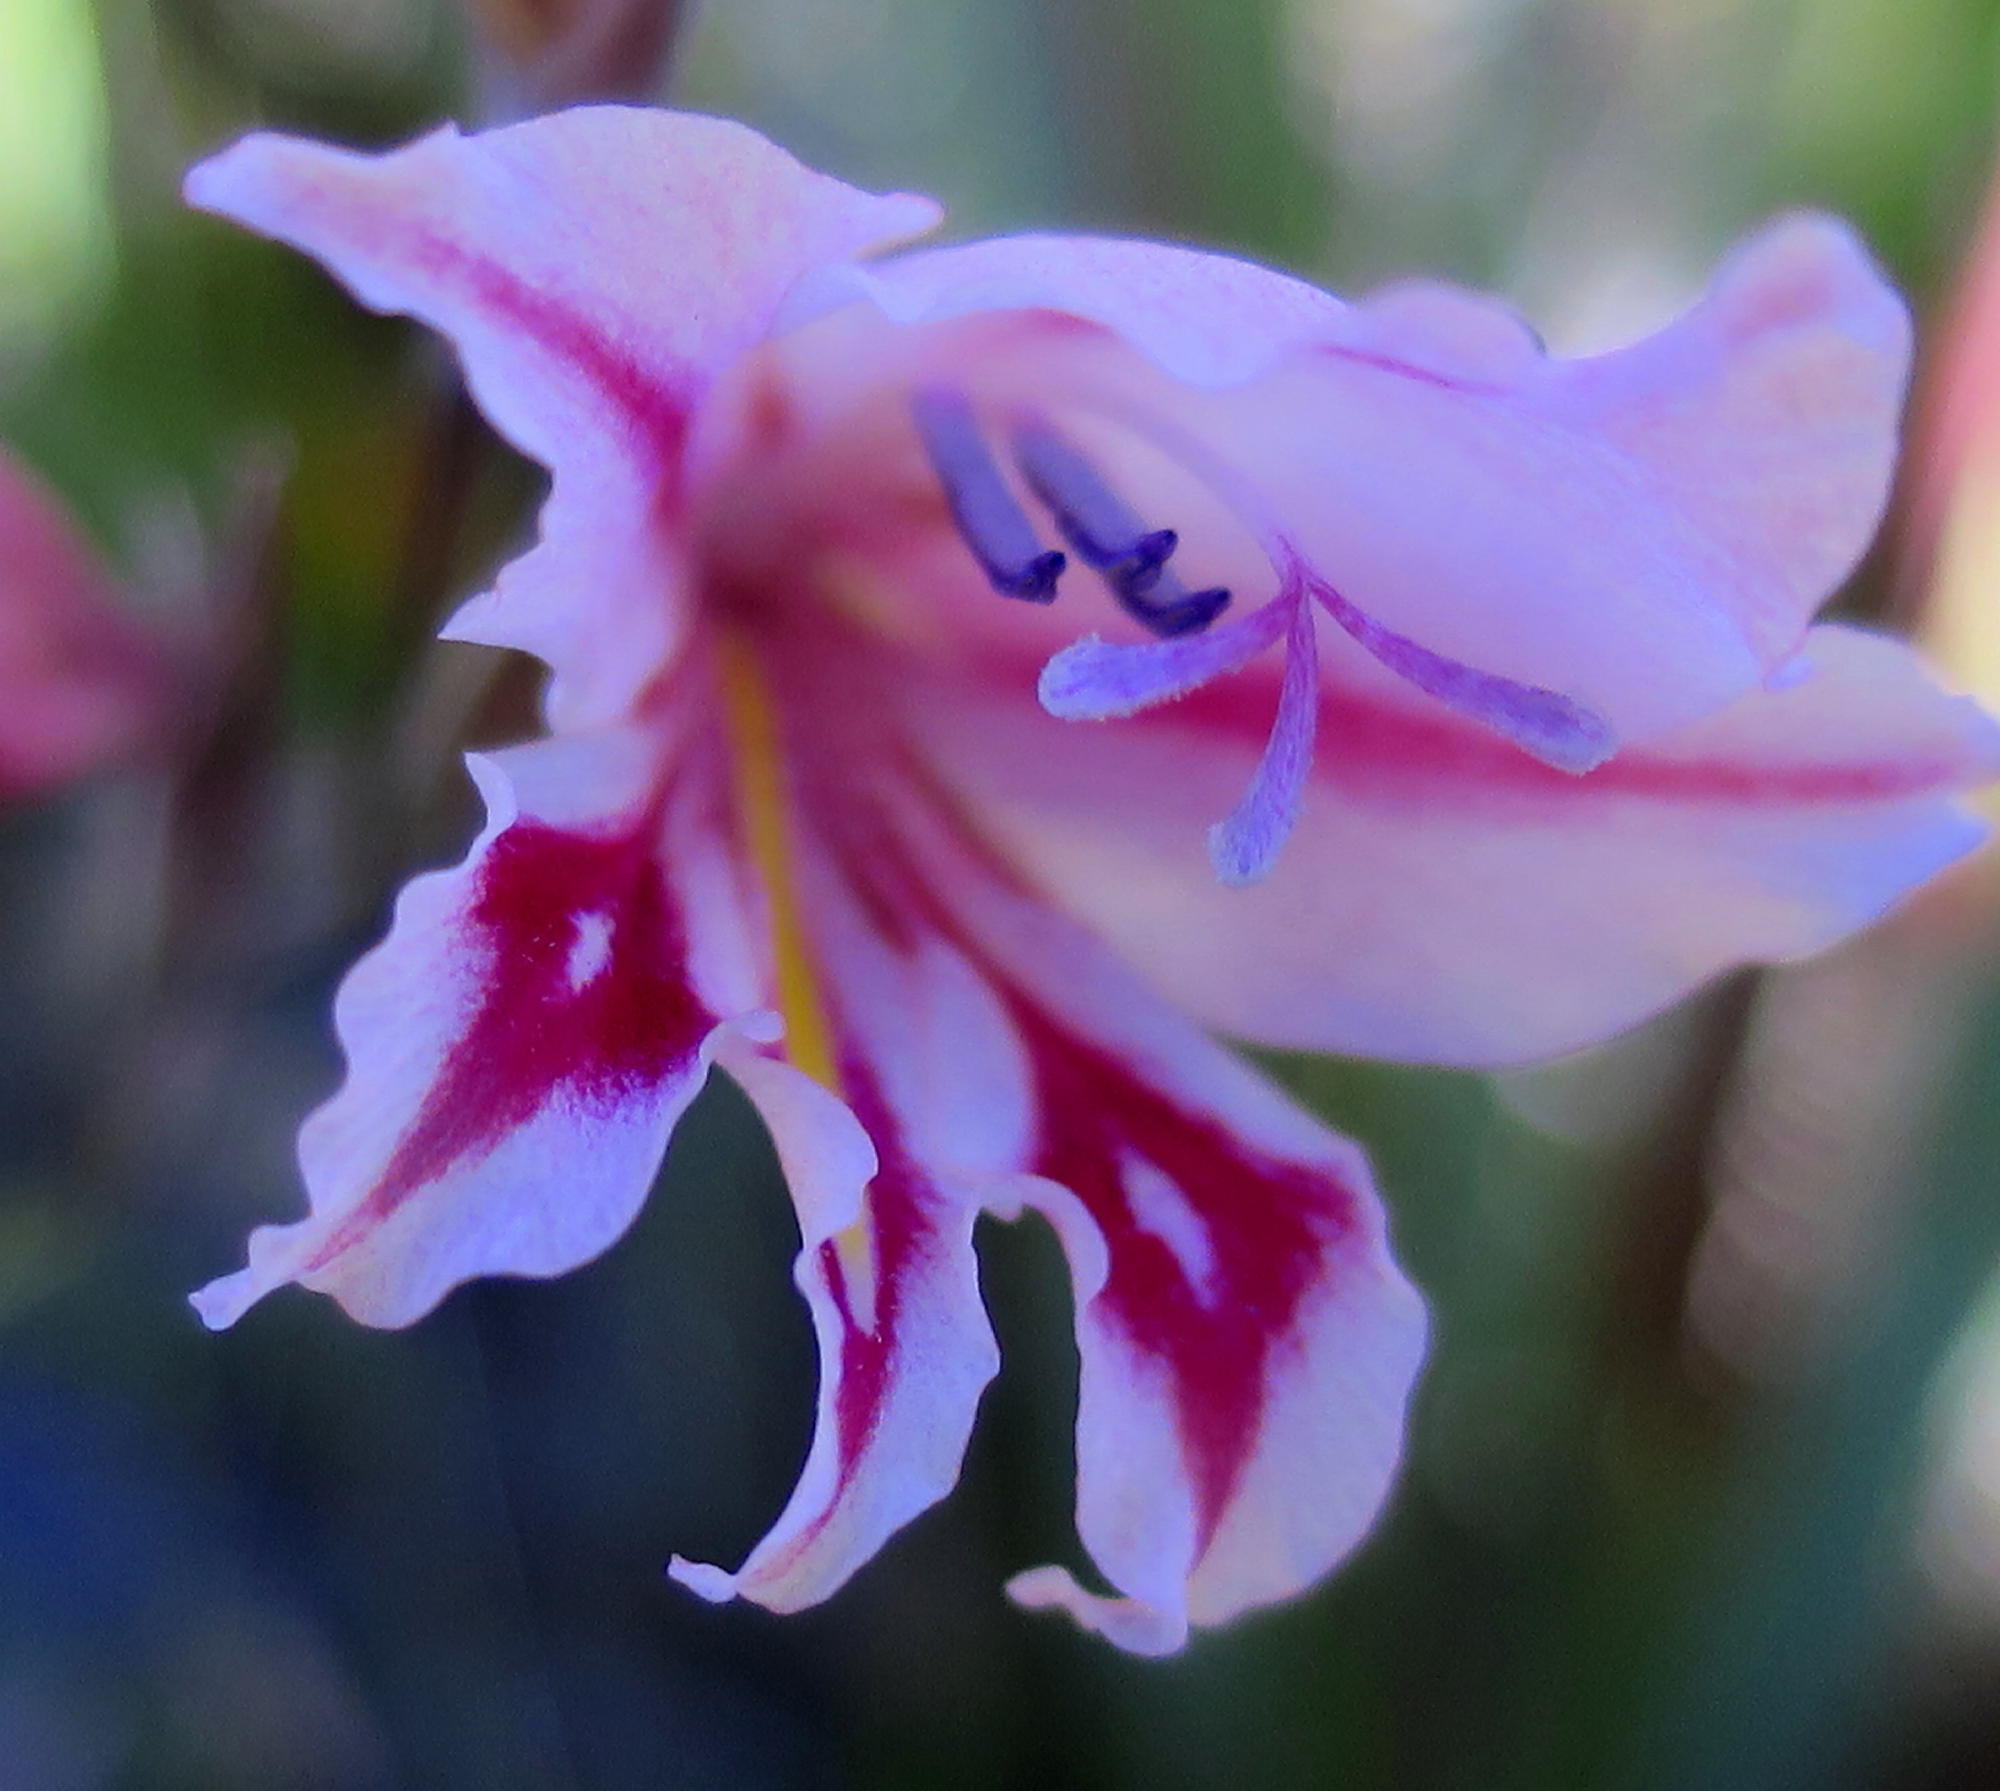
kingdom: Plantae
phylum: Tracheophyta
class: Liliopsida
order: Asparagales
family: Iridaceae
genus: Gladiolus
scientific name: Gladiolus nigromontanus
